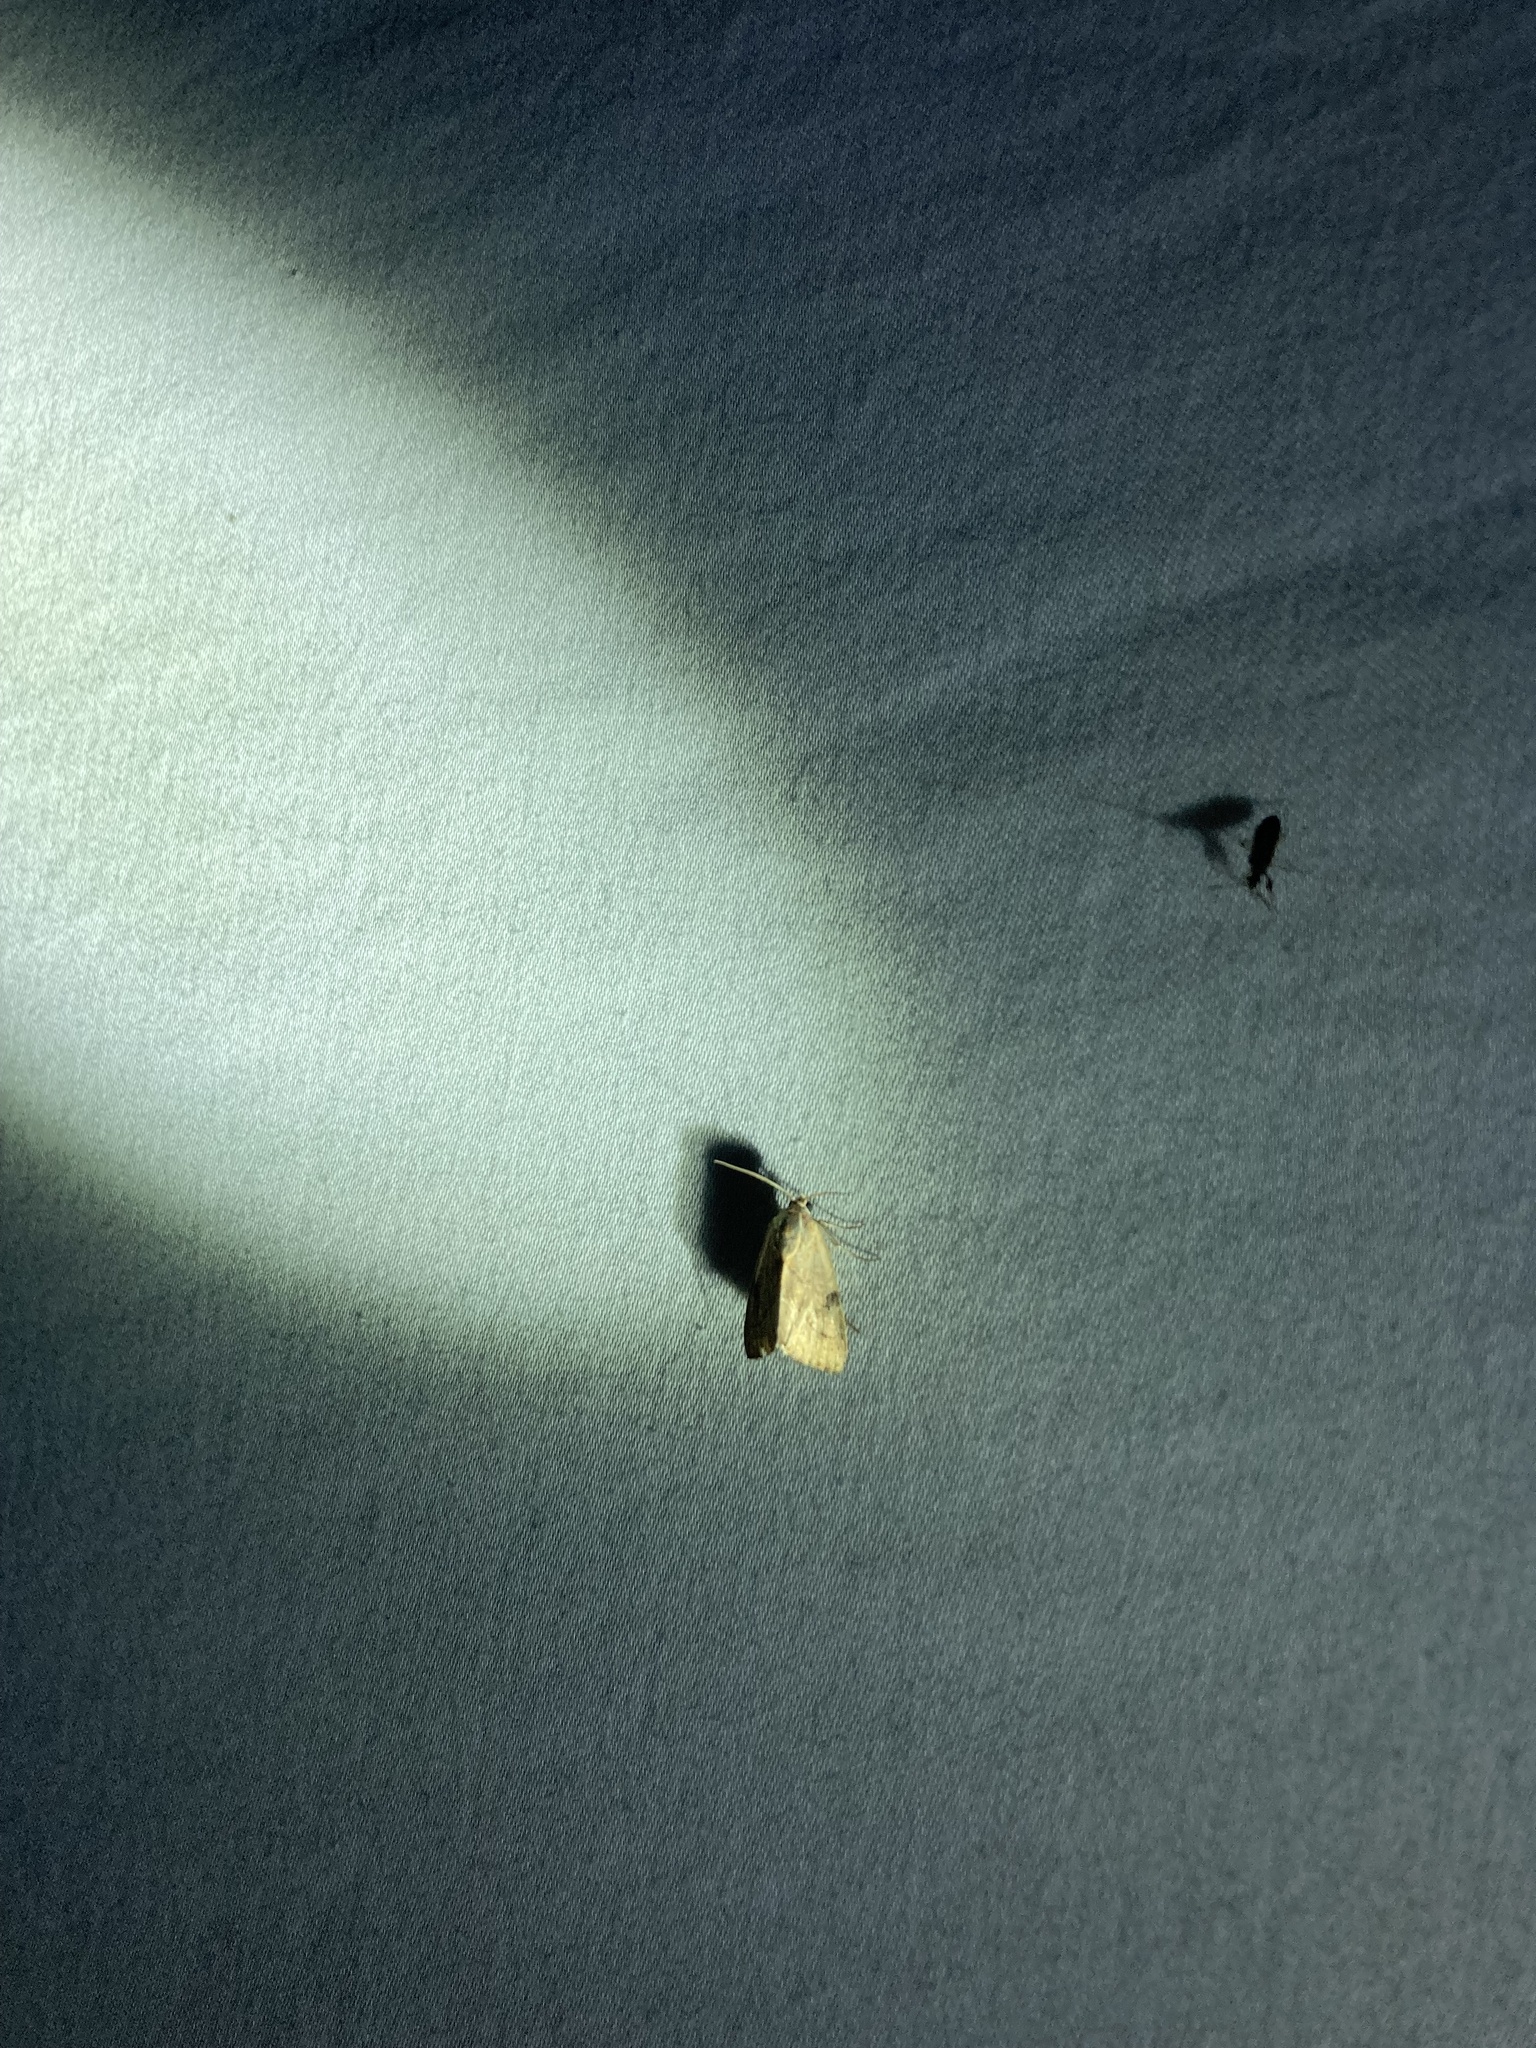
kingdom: Animalia
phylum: Arthropoda
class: Insecta
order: Lepidoptera
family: Noctuidae
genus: Galgula
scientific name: Galgula partita
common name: Wedgeling
